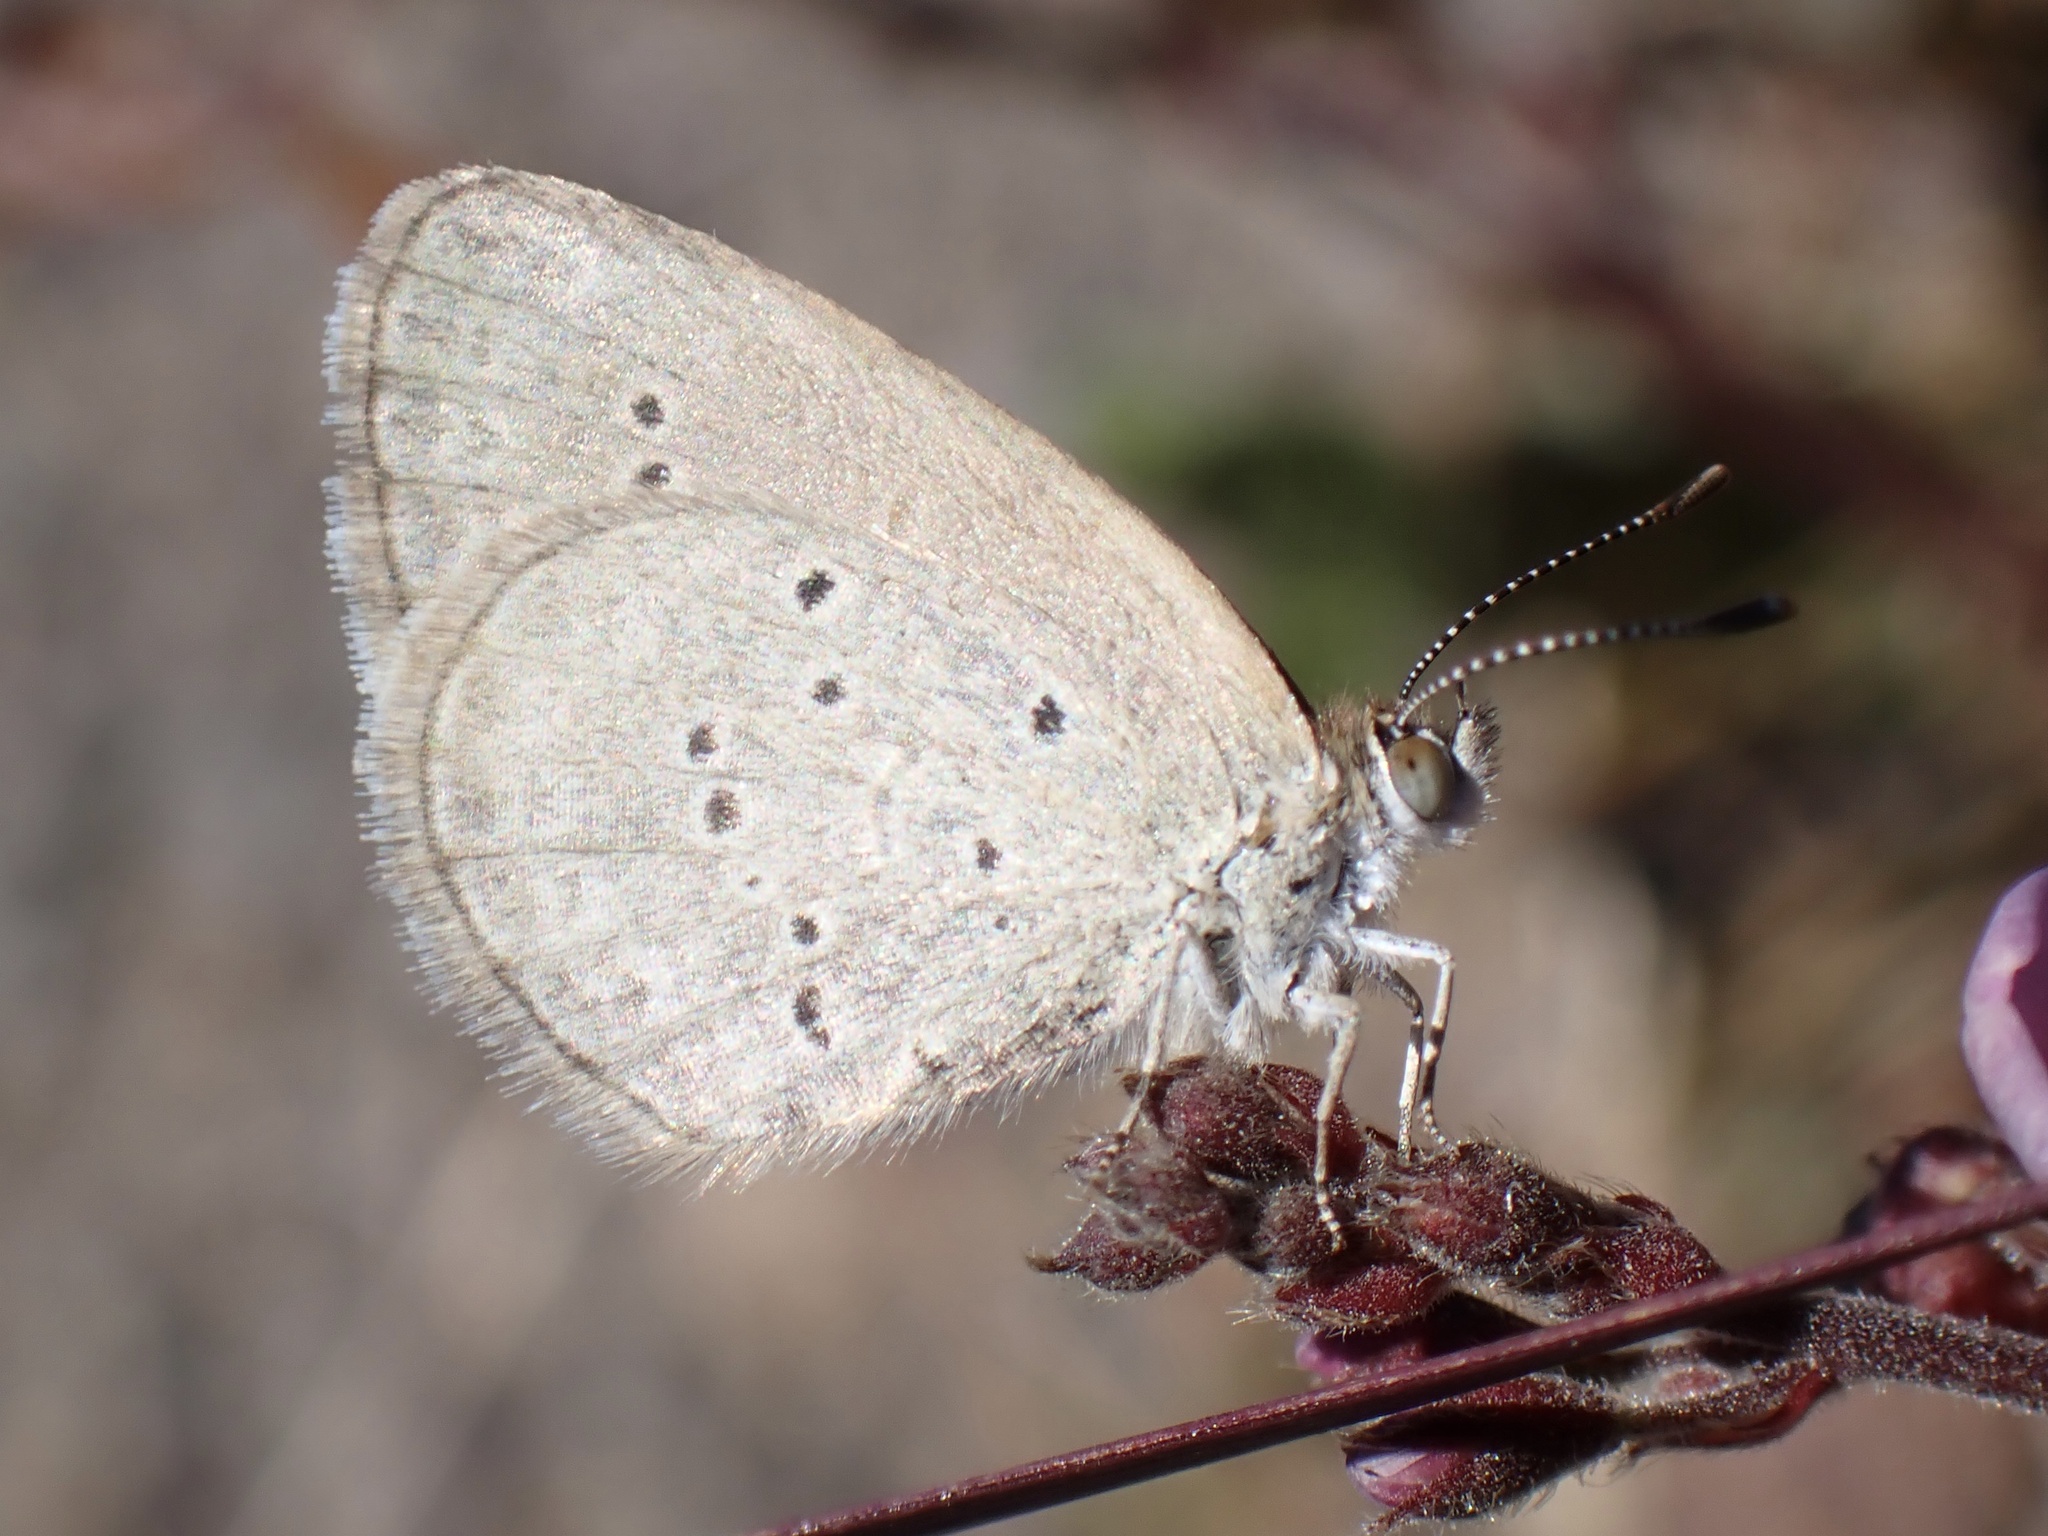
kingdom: Animalia
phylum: Arthropoda
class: Insecta
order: Lepidoptera
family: Lycaenidae
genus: Zizina
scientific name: Zizina otis
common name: Lesser grass blue
